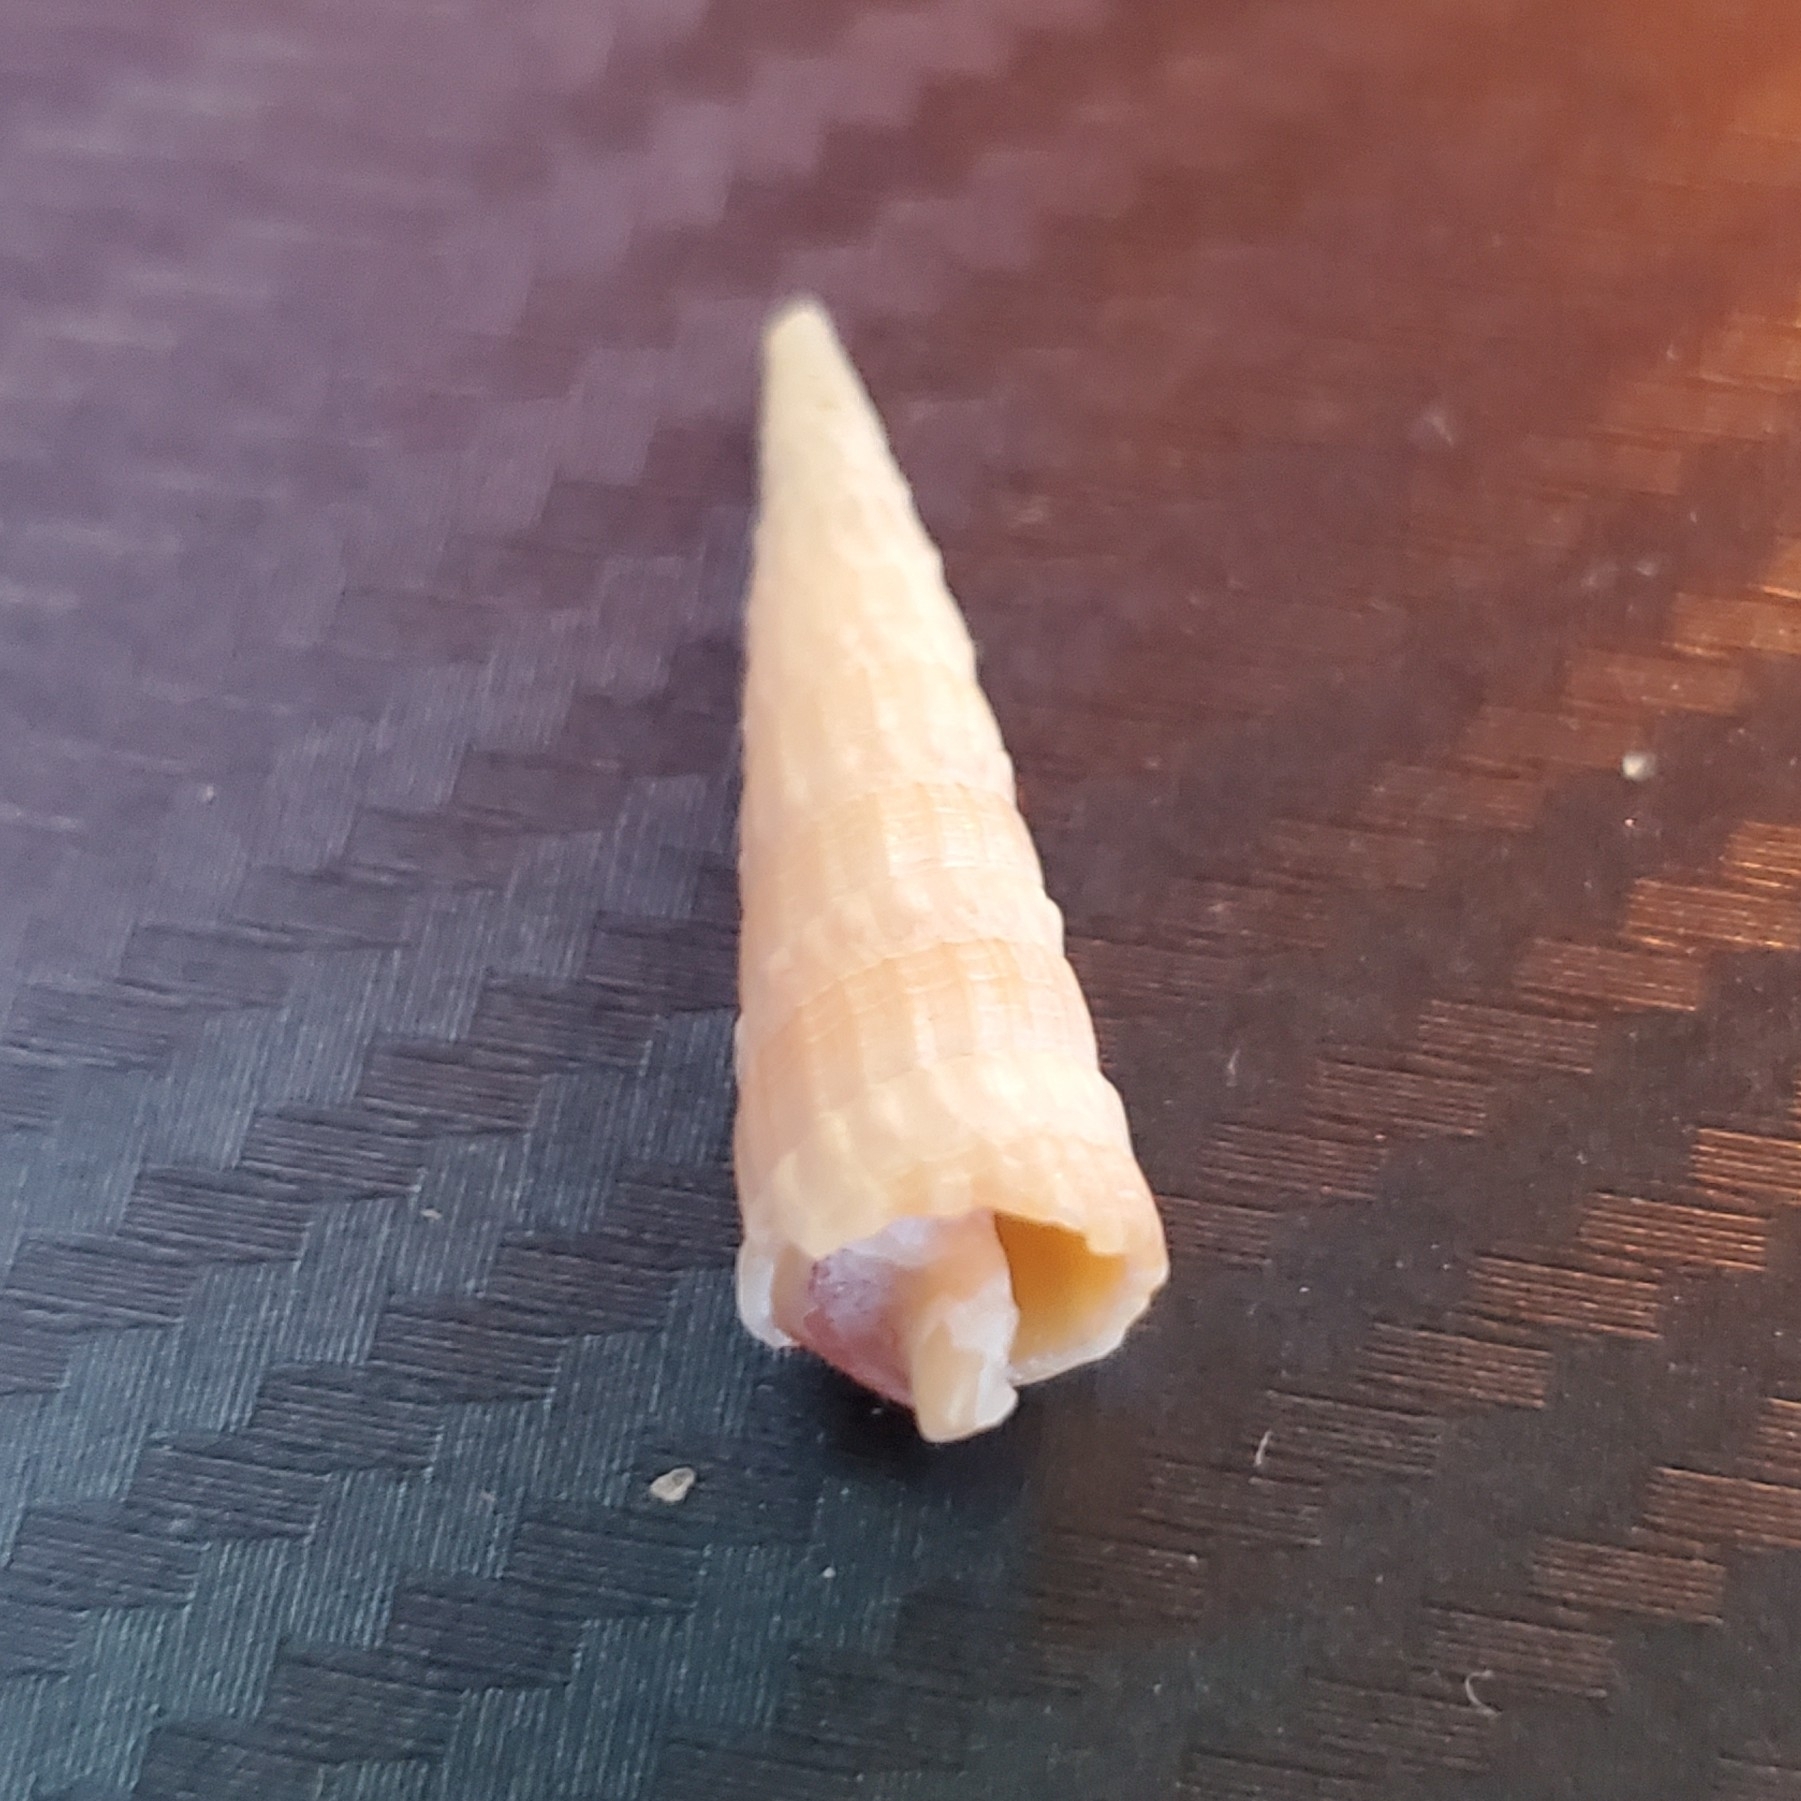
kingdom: Animalia
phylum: Mollusca
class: Gastropoda
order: Neogastropoda
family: Terebridae
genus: Neoterebra
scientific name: Neoterebra dislocata
